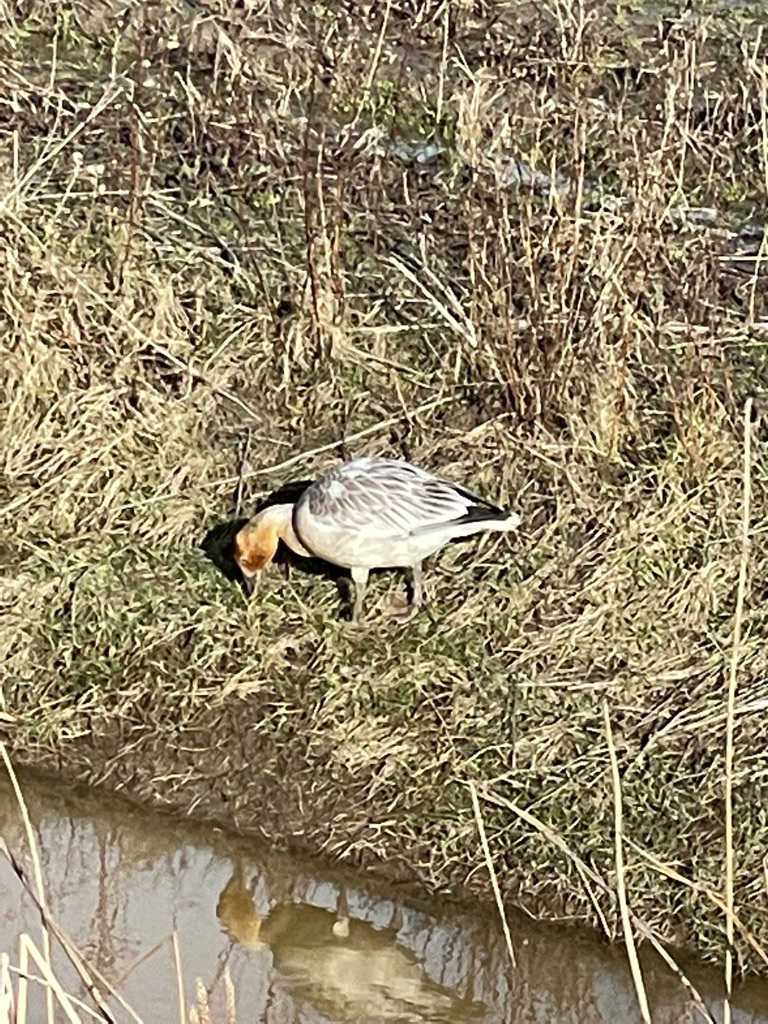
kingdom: Animalia
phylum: Chordata
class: Aves
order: Anseriformes
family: Anatidae
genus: Anser
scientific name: Anser caerulescens
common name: Snow goose
